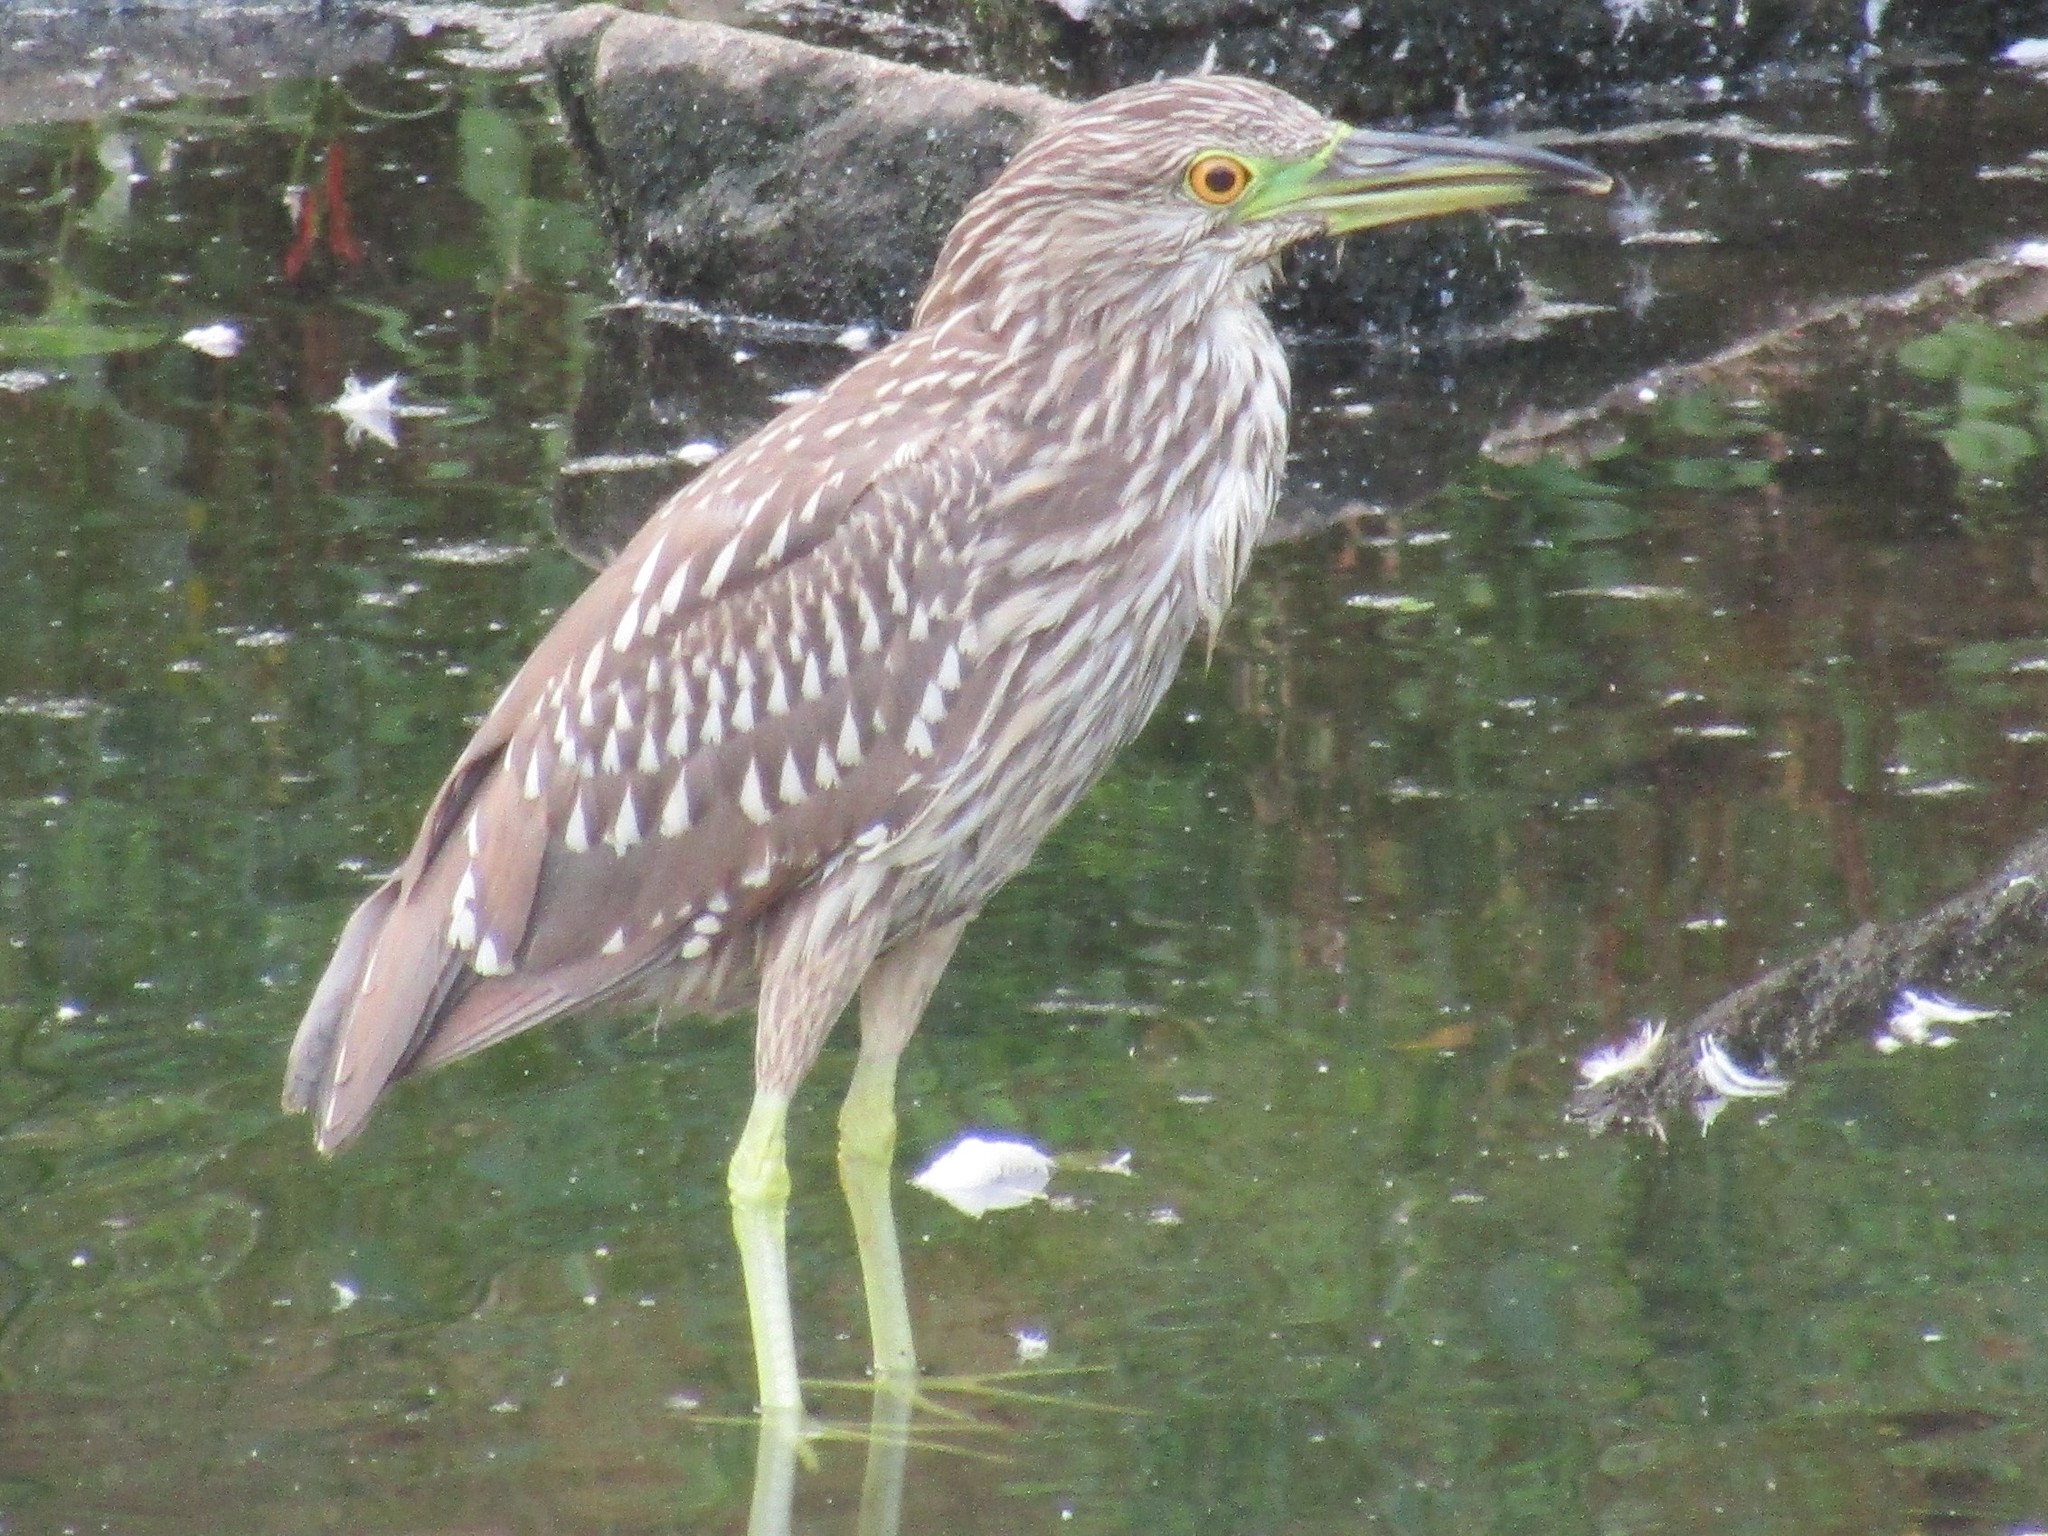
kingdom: Animalia
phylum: Chordata
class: Aves
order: Pelecaniformes
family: Ardeidae
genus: Nycticorax
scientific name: Nycticorax nycticorax
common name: Black-crowned night heron
